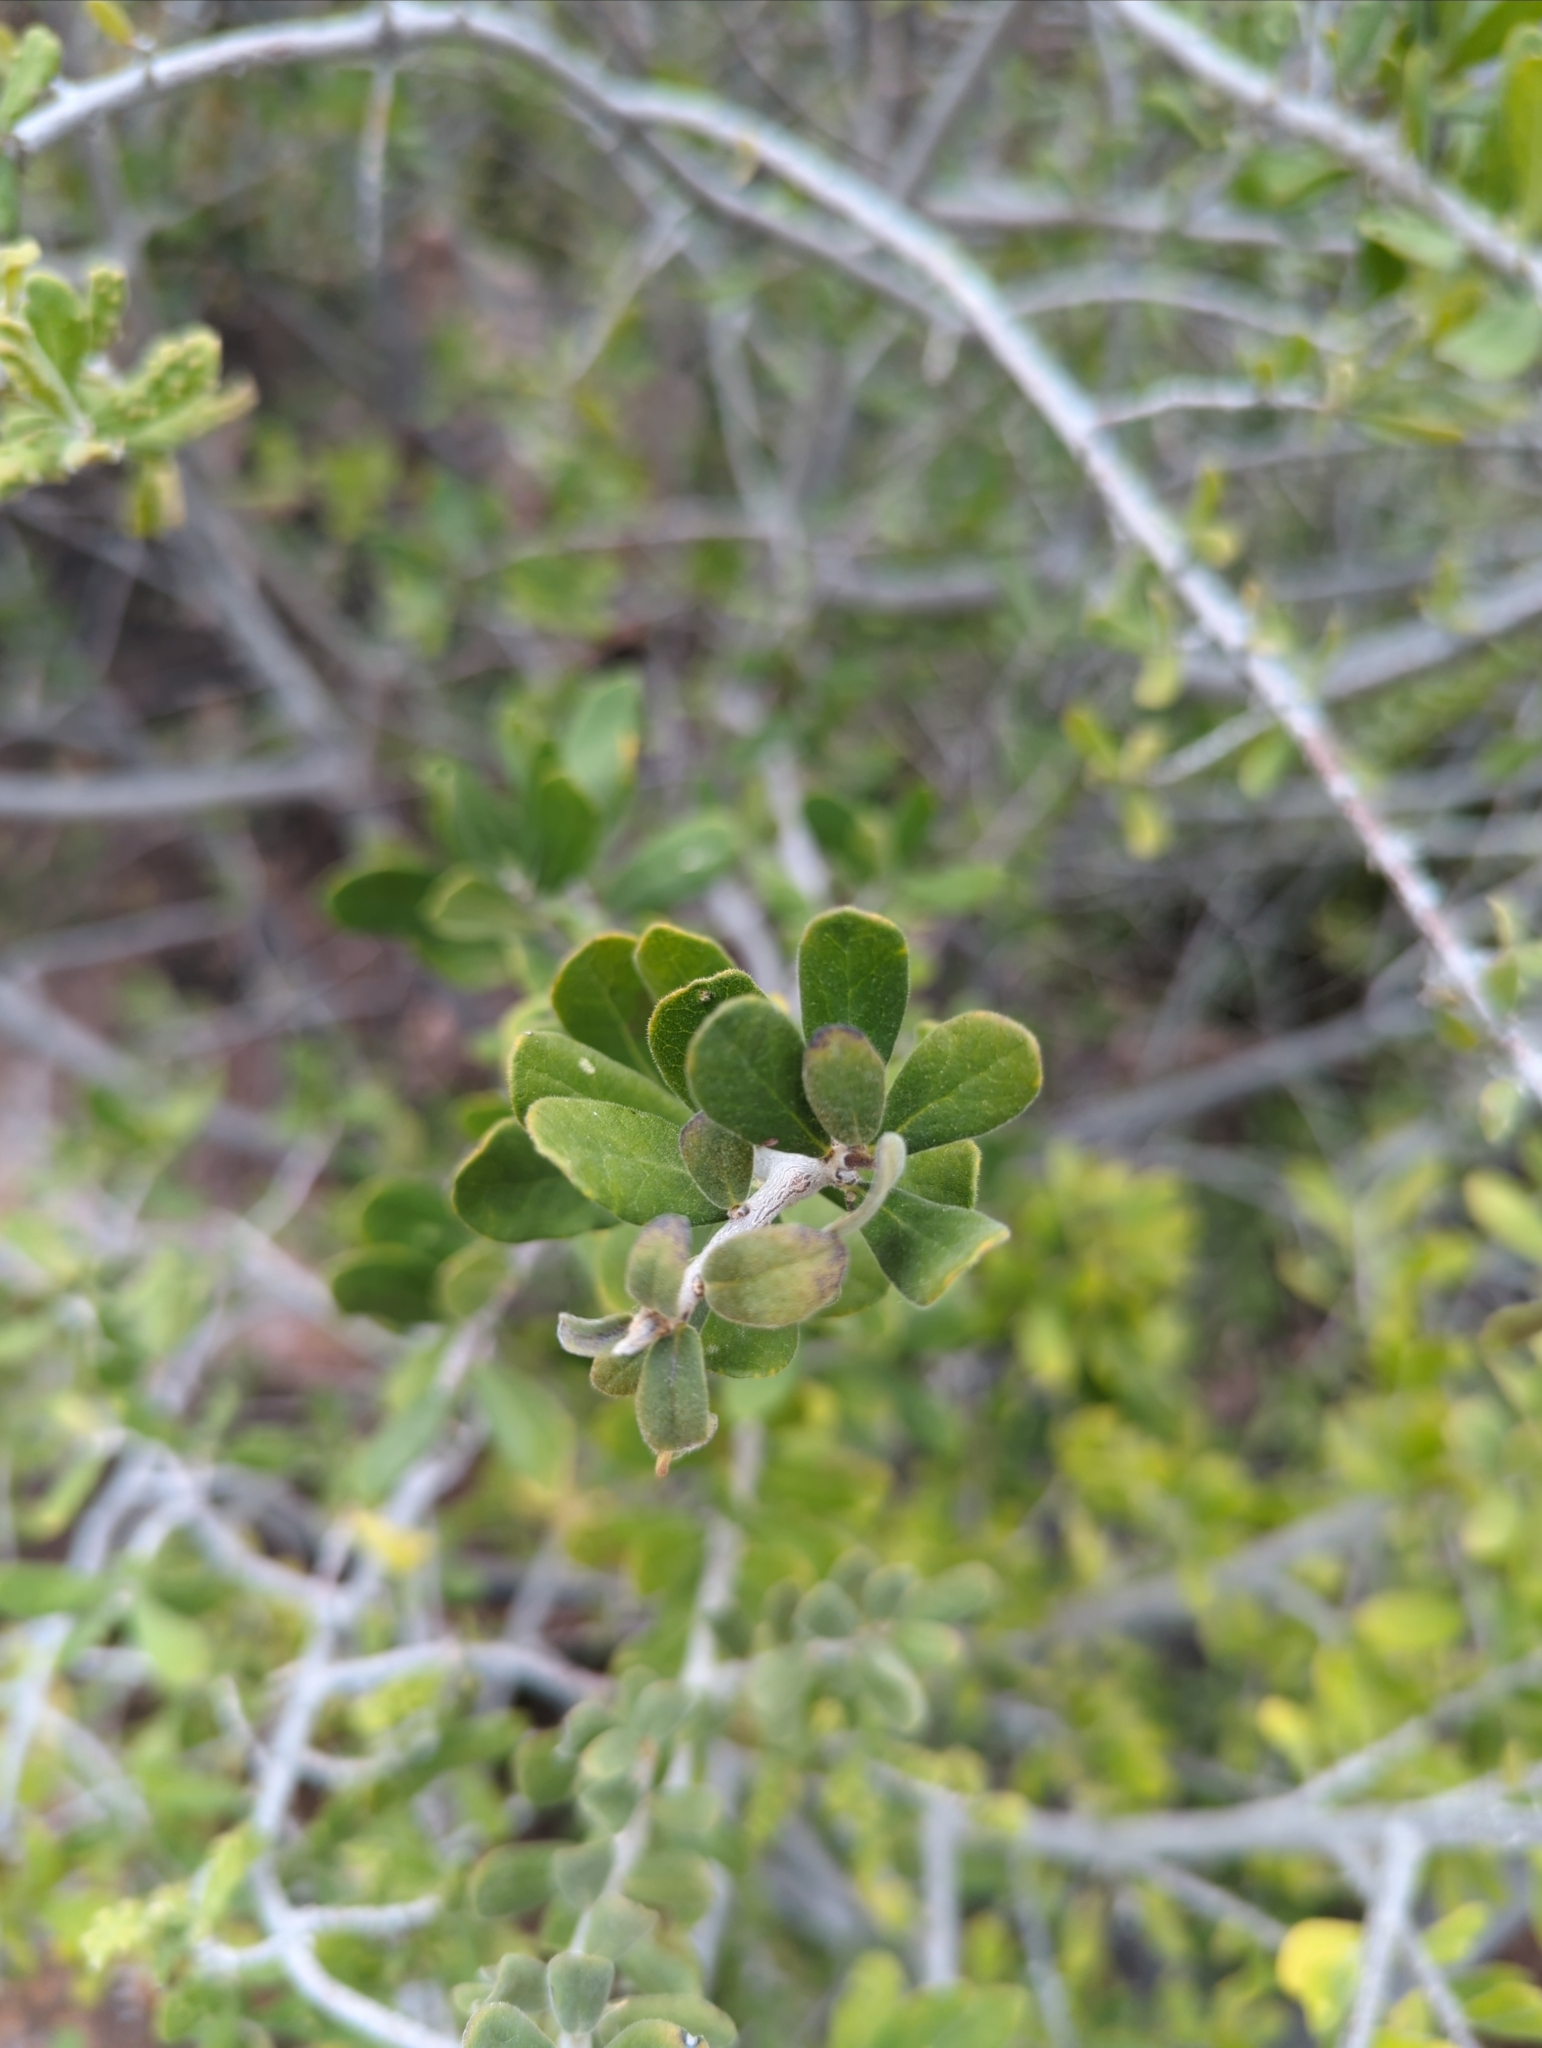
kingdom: Plantae
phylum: Tracheophyta
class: Magnoliopsida
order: Ericales
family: Ebenaceae
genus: Diospyros
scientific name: Diospyros texana
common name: Texas persimmon
